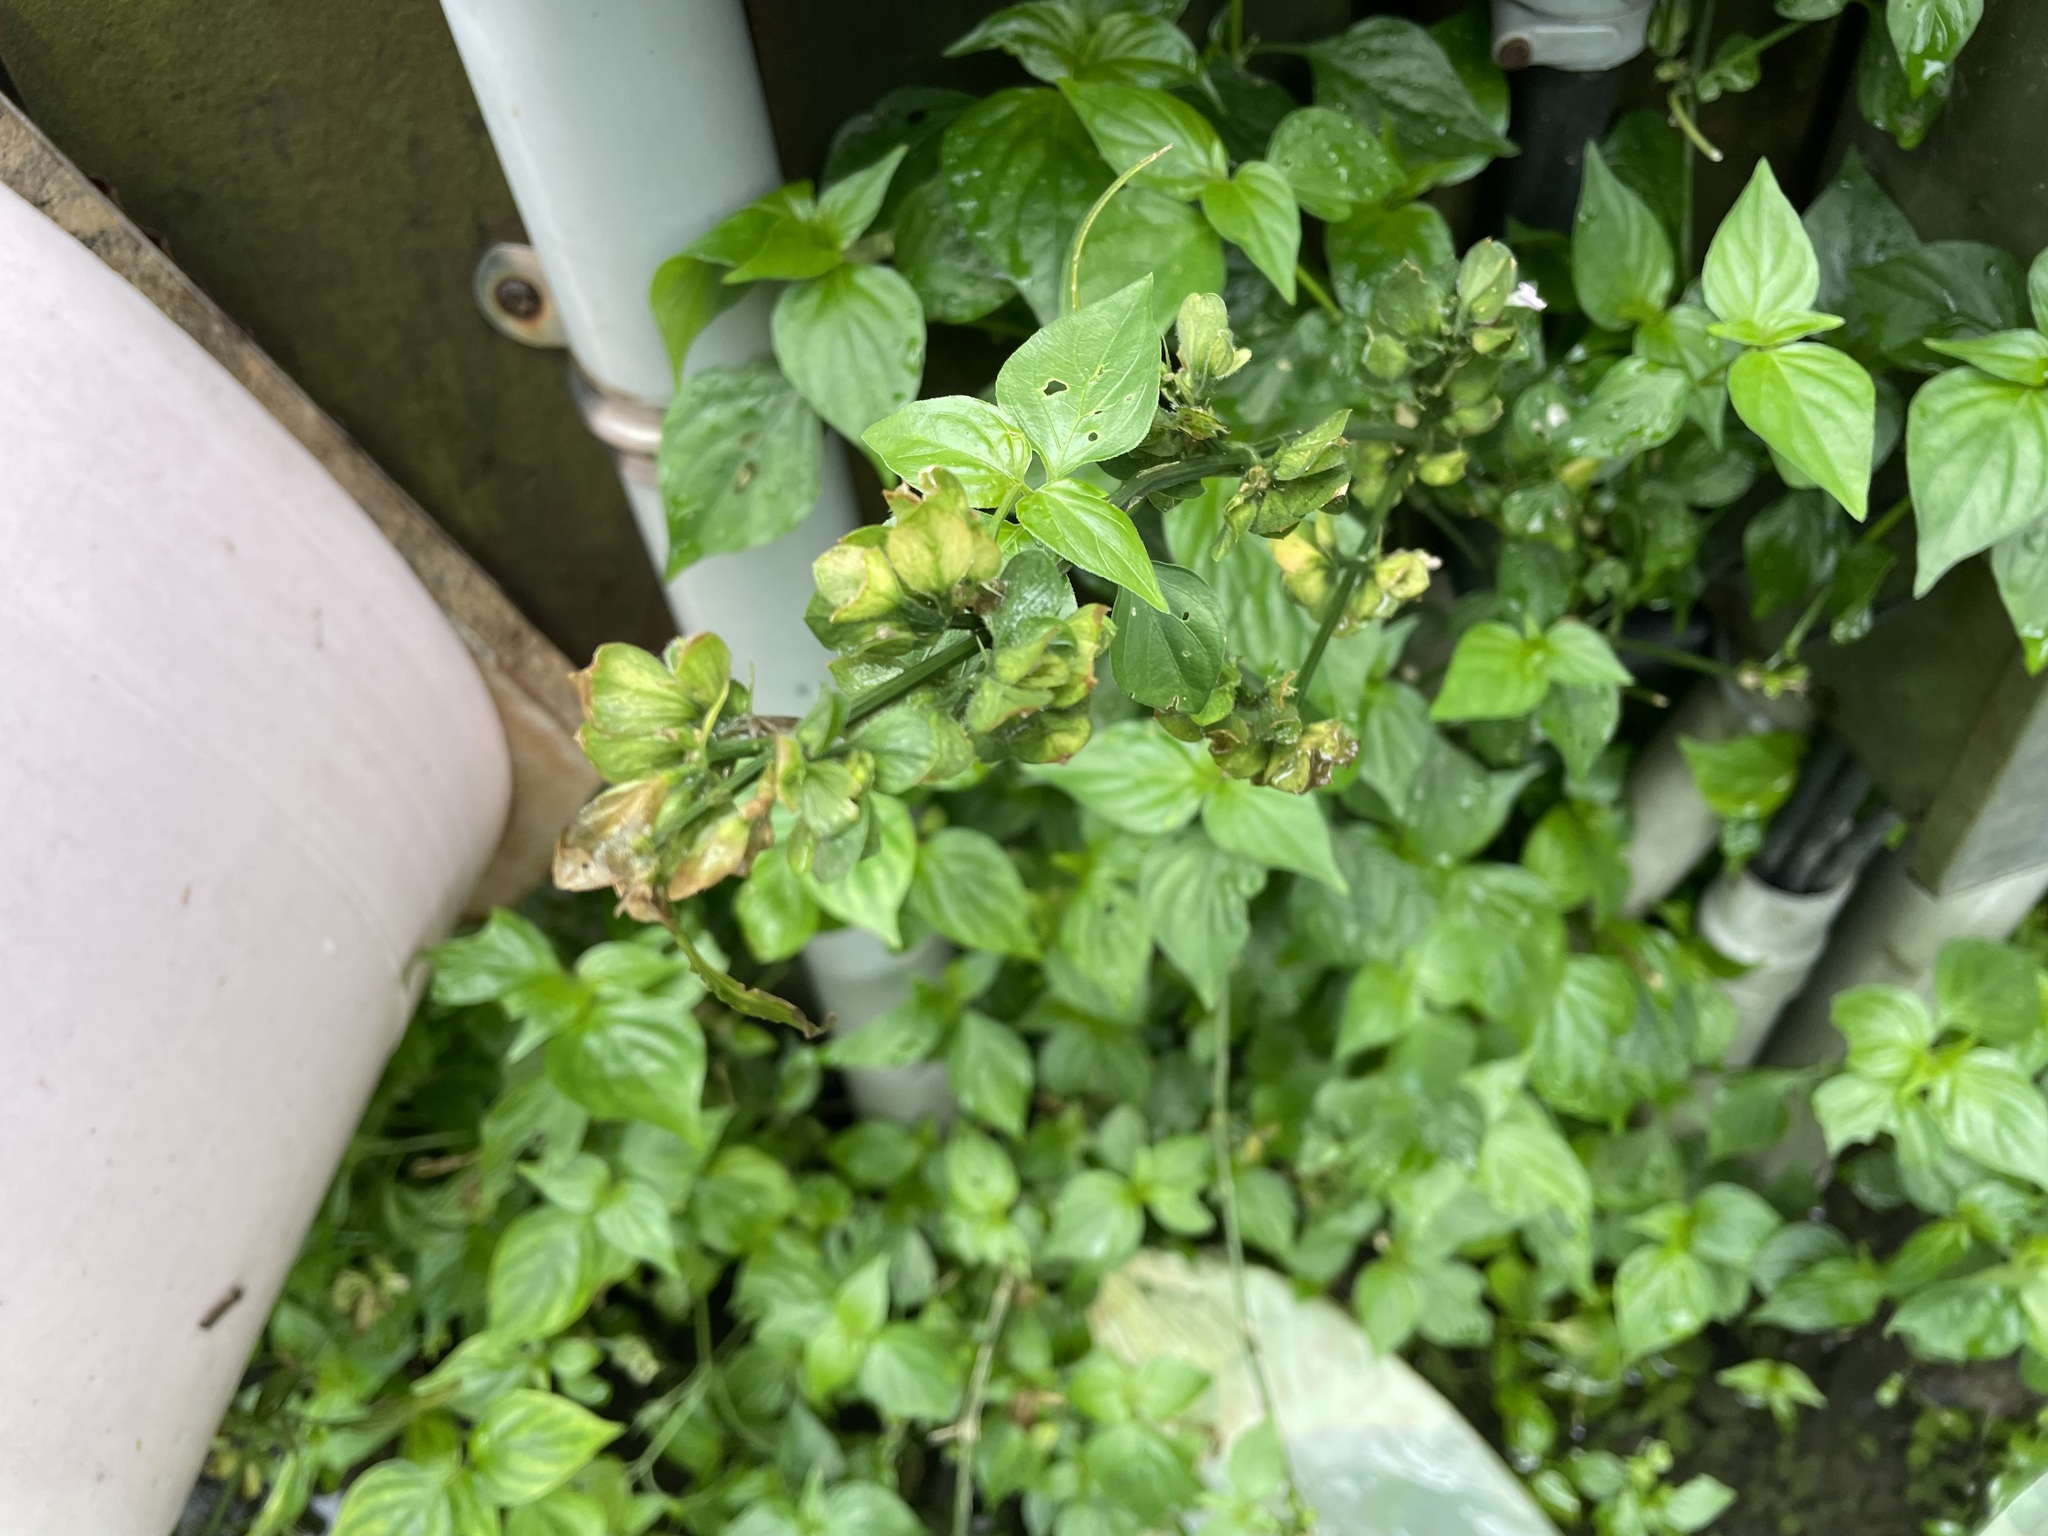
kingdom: Plantae
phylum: Tracheophyta
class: Magnoliopsida
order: Lamiales
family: Acanthaceae
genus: Dicliptera
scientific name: Dicliptera chinensis
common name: Chinese foldwing
